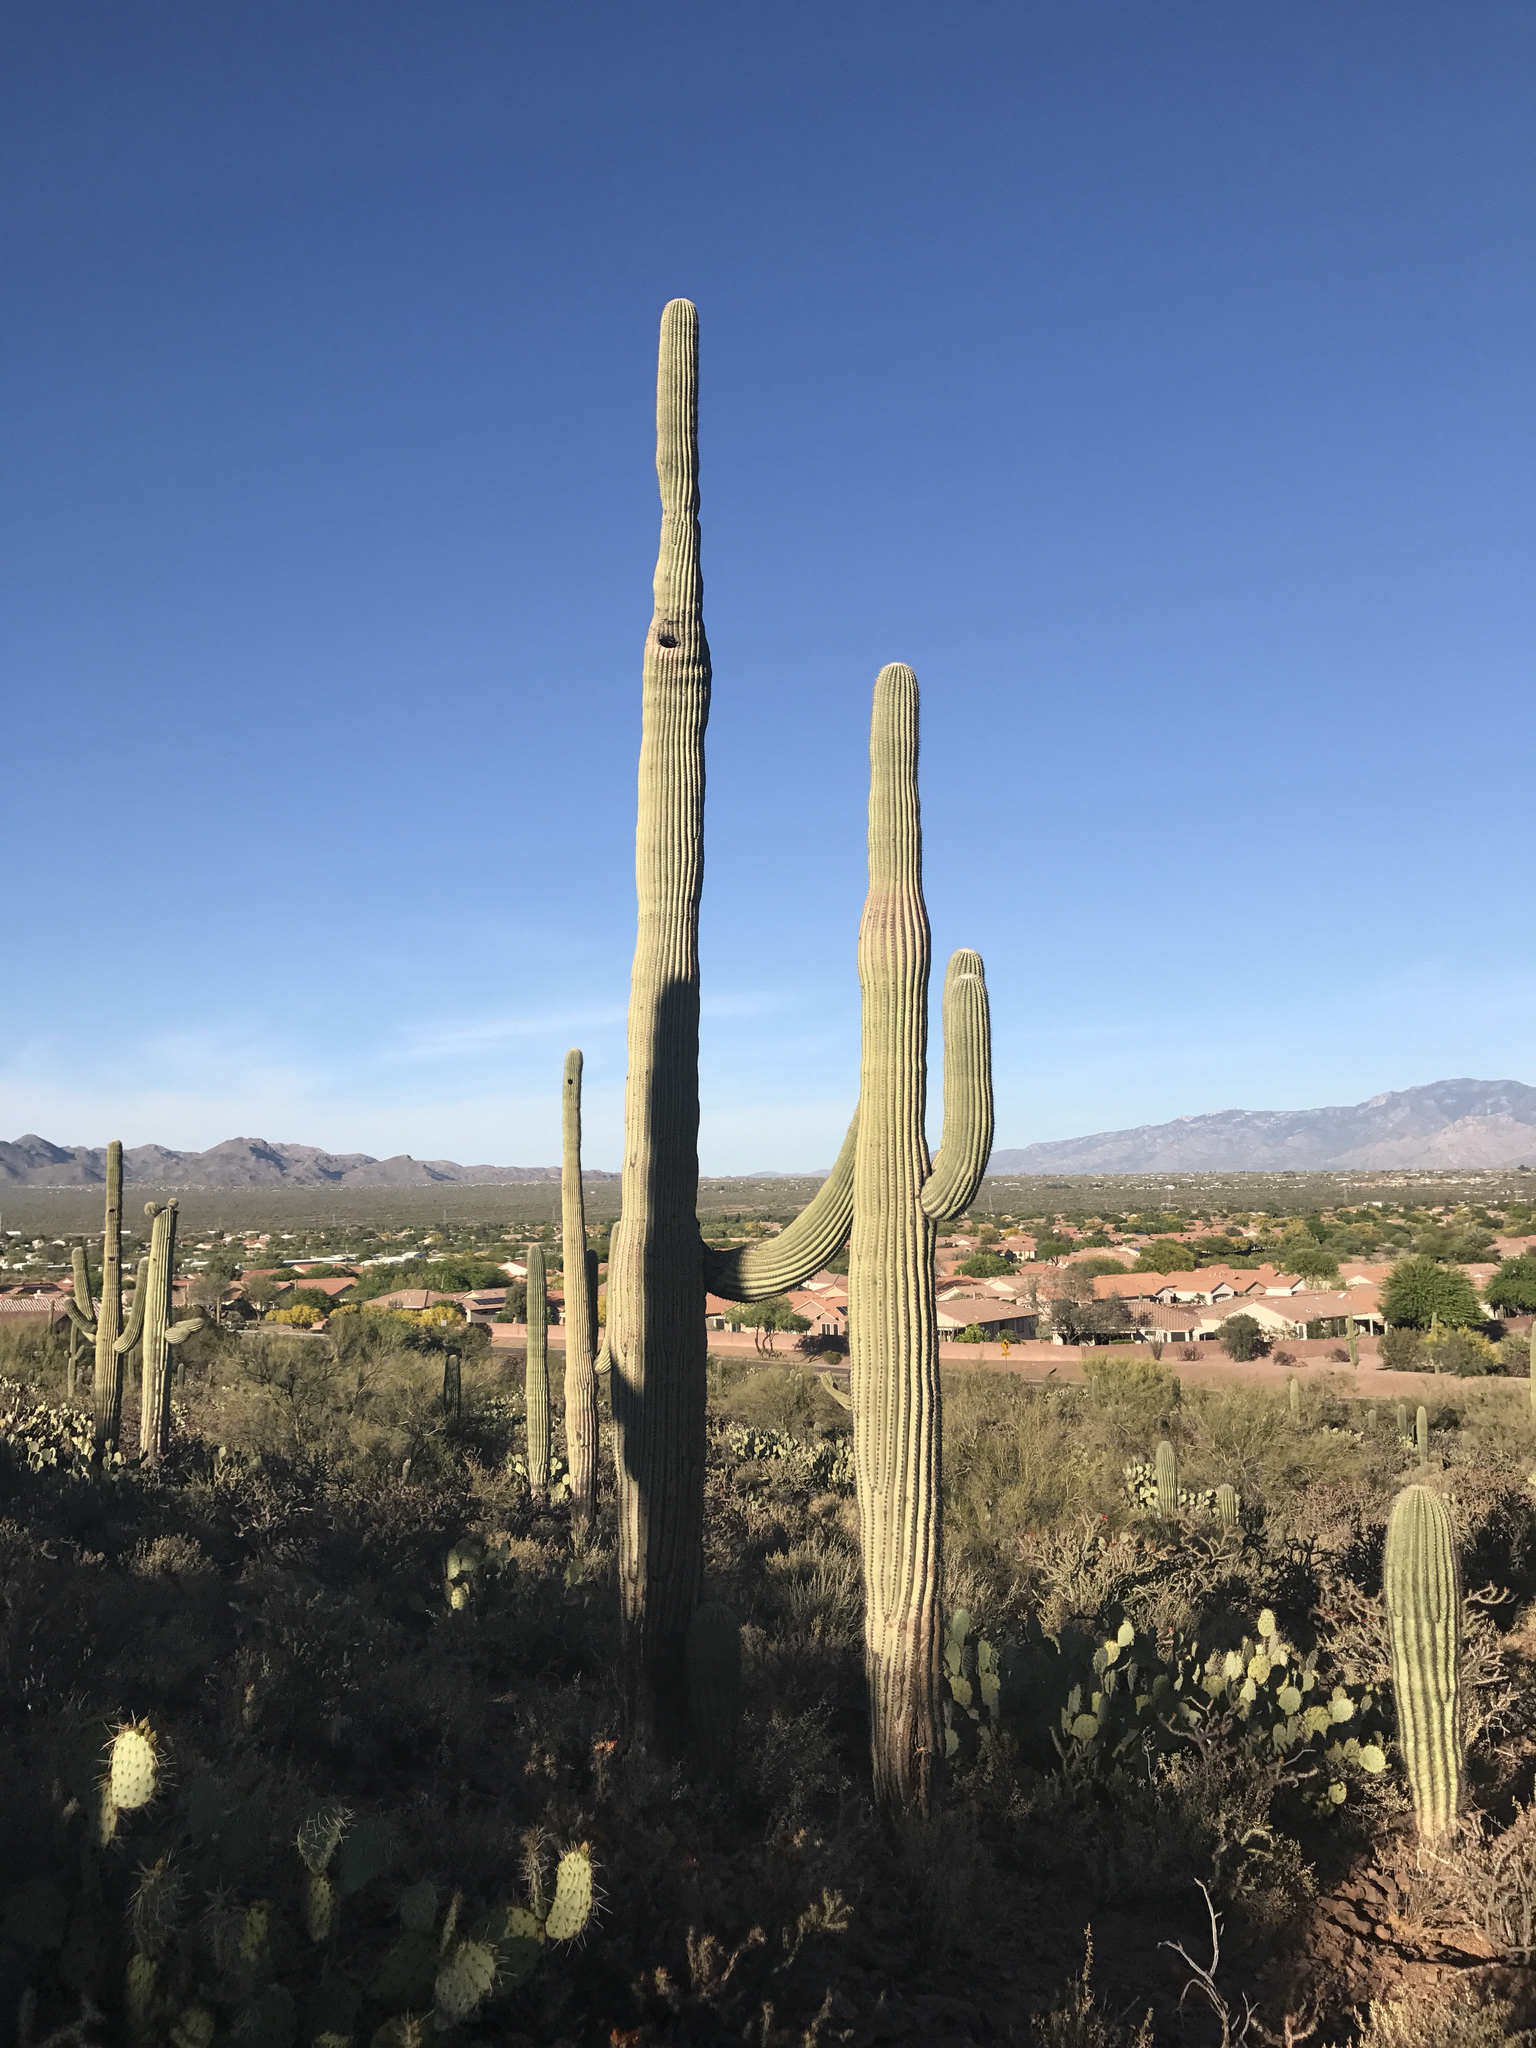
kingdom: Plantae
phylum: Tracheophyta
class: Magnoliopsida
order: Caryophyllales
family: Cactaceae
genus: Carnegiea
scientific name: Carnegiea gigantea
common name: Saguaro
